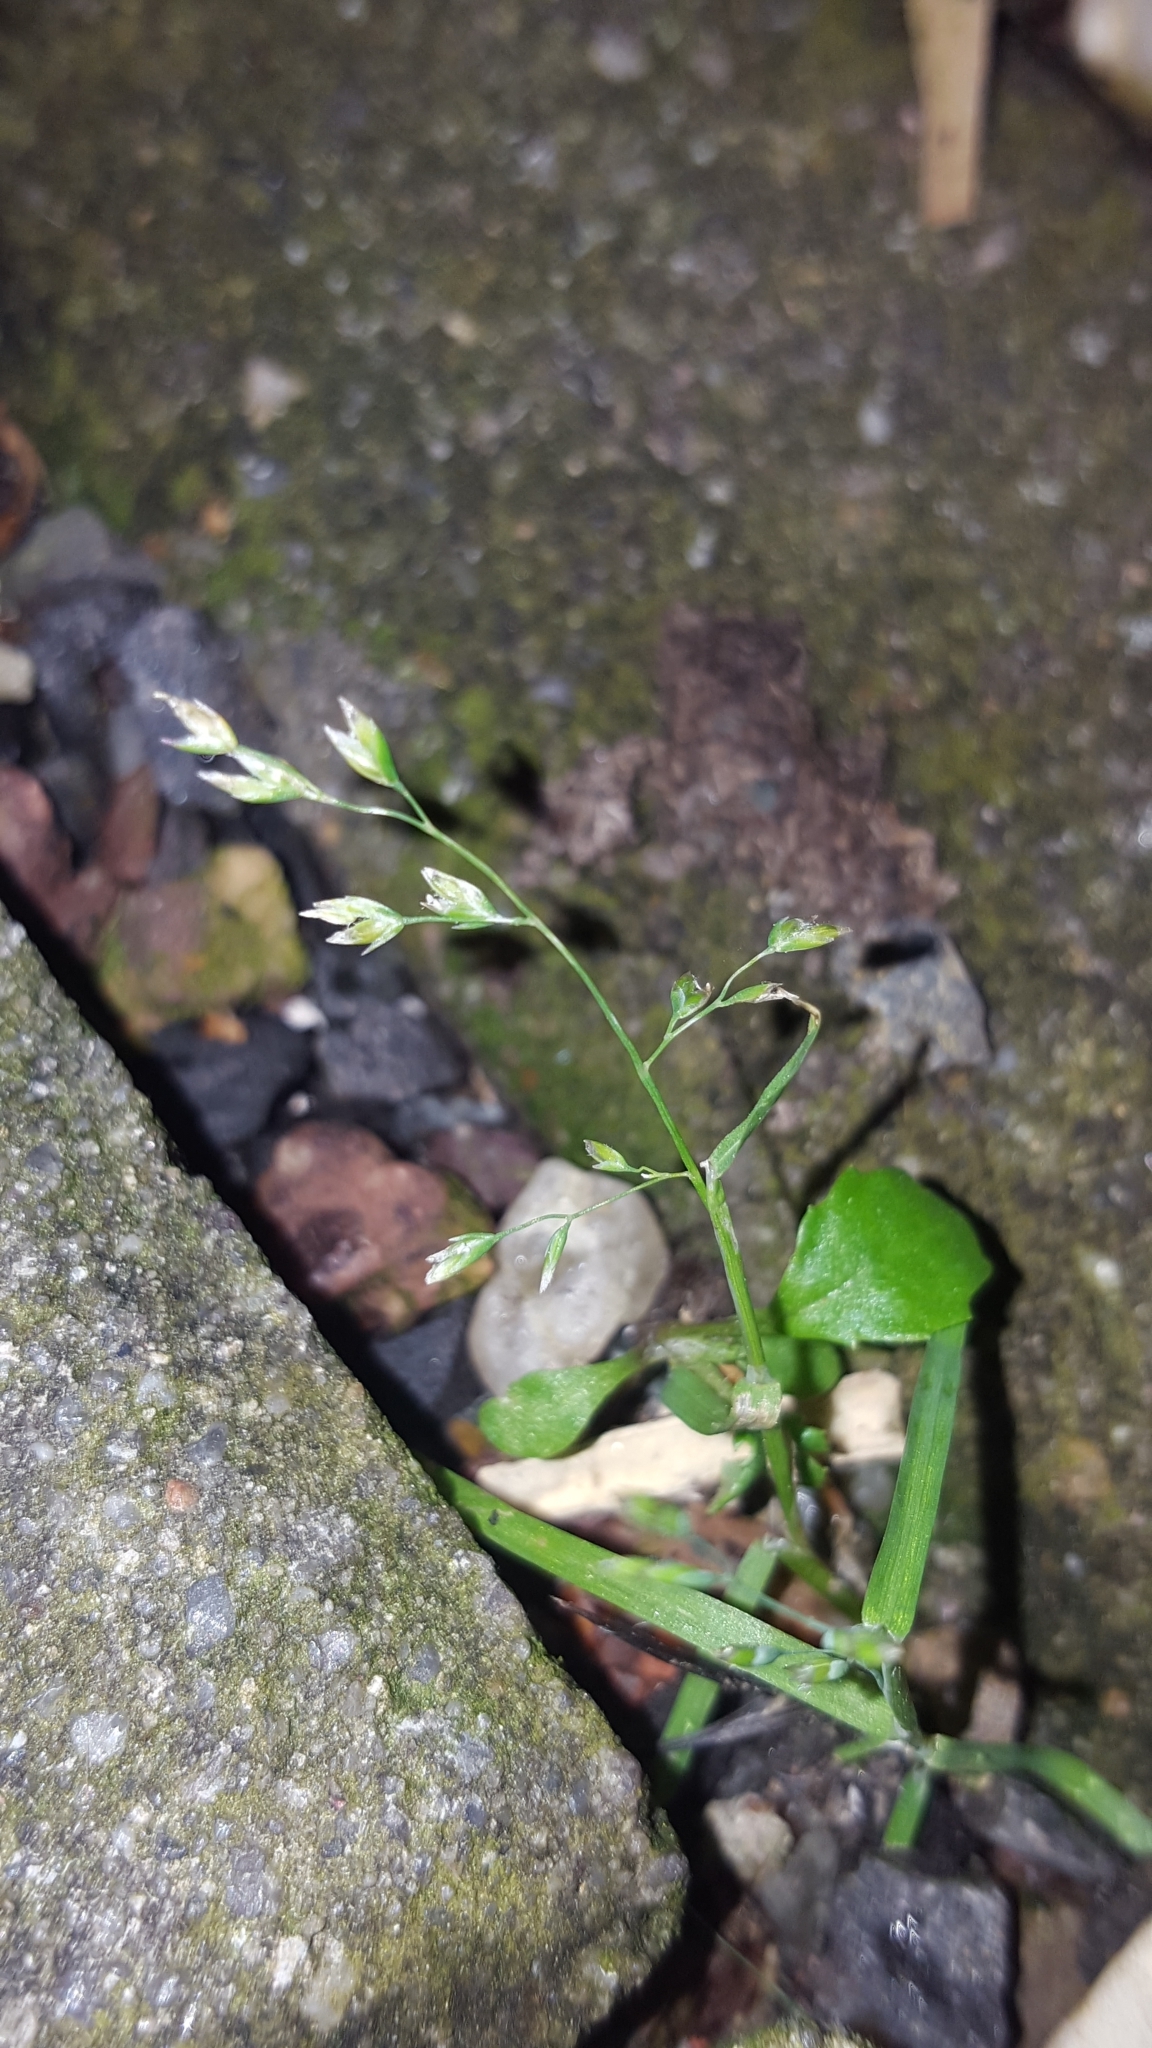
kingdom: Plantae
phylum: Tracheophyta
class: Liliopsida
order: Poales
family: Poaceae
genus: Poa
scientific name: Poa annua
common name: Annual bluegrass
